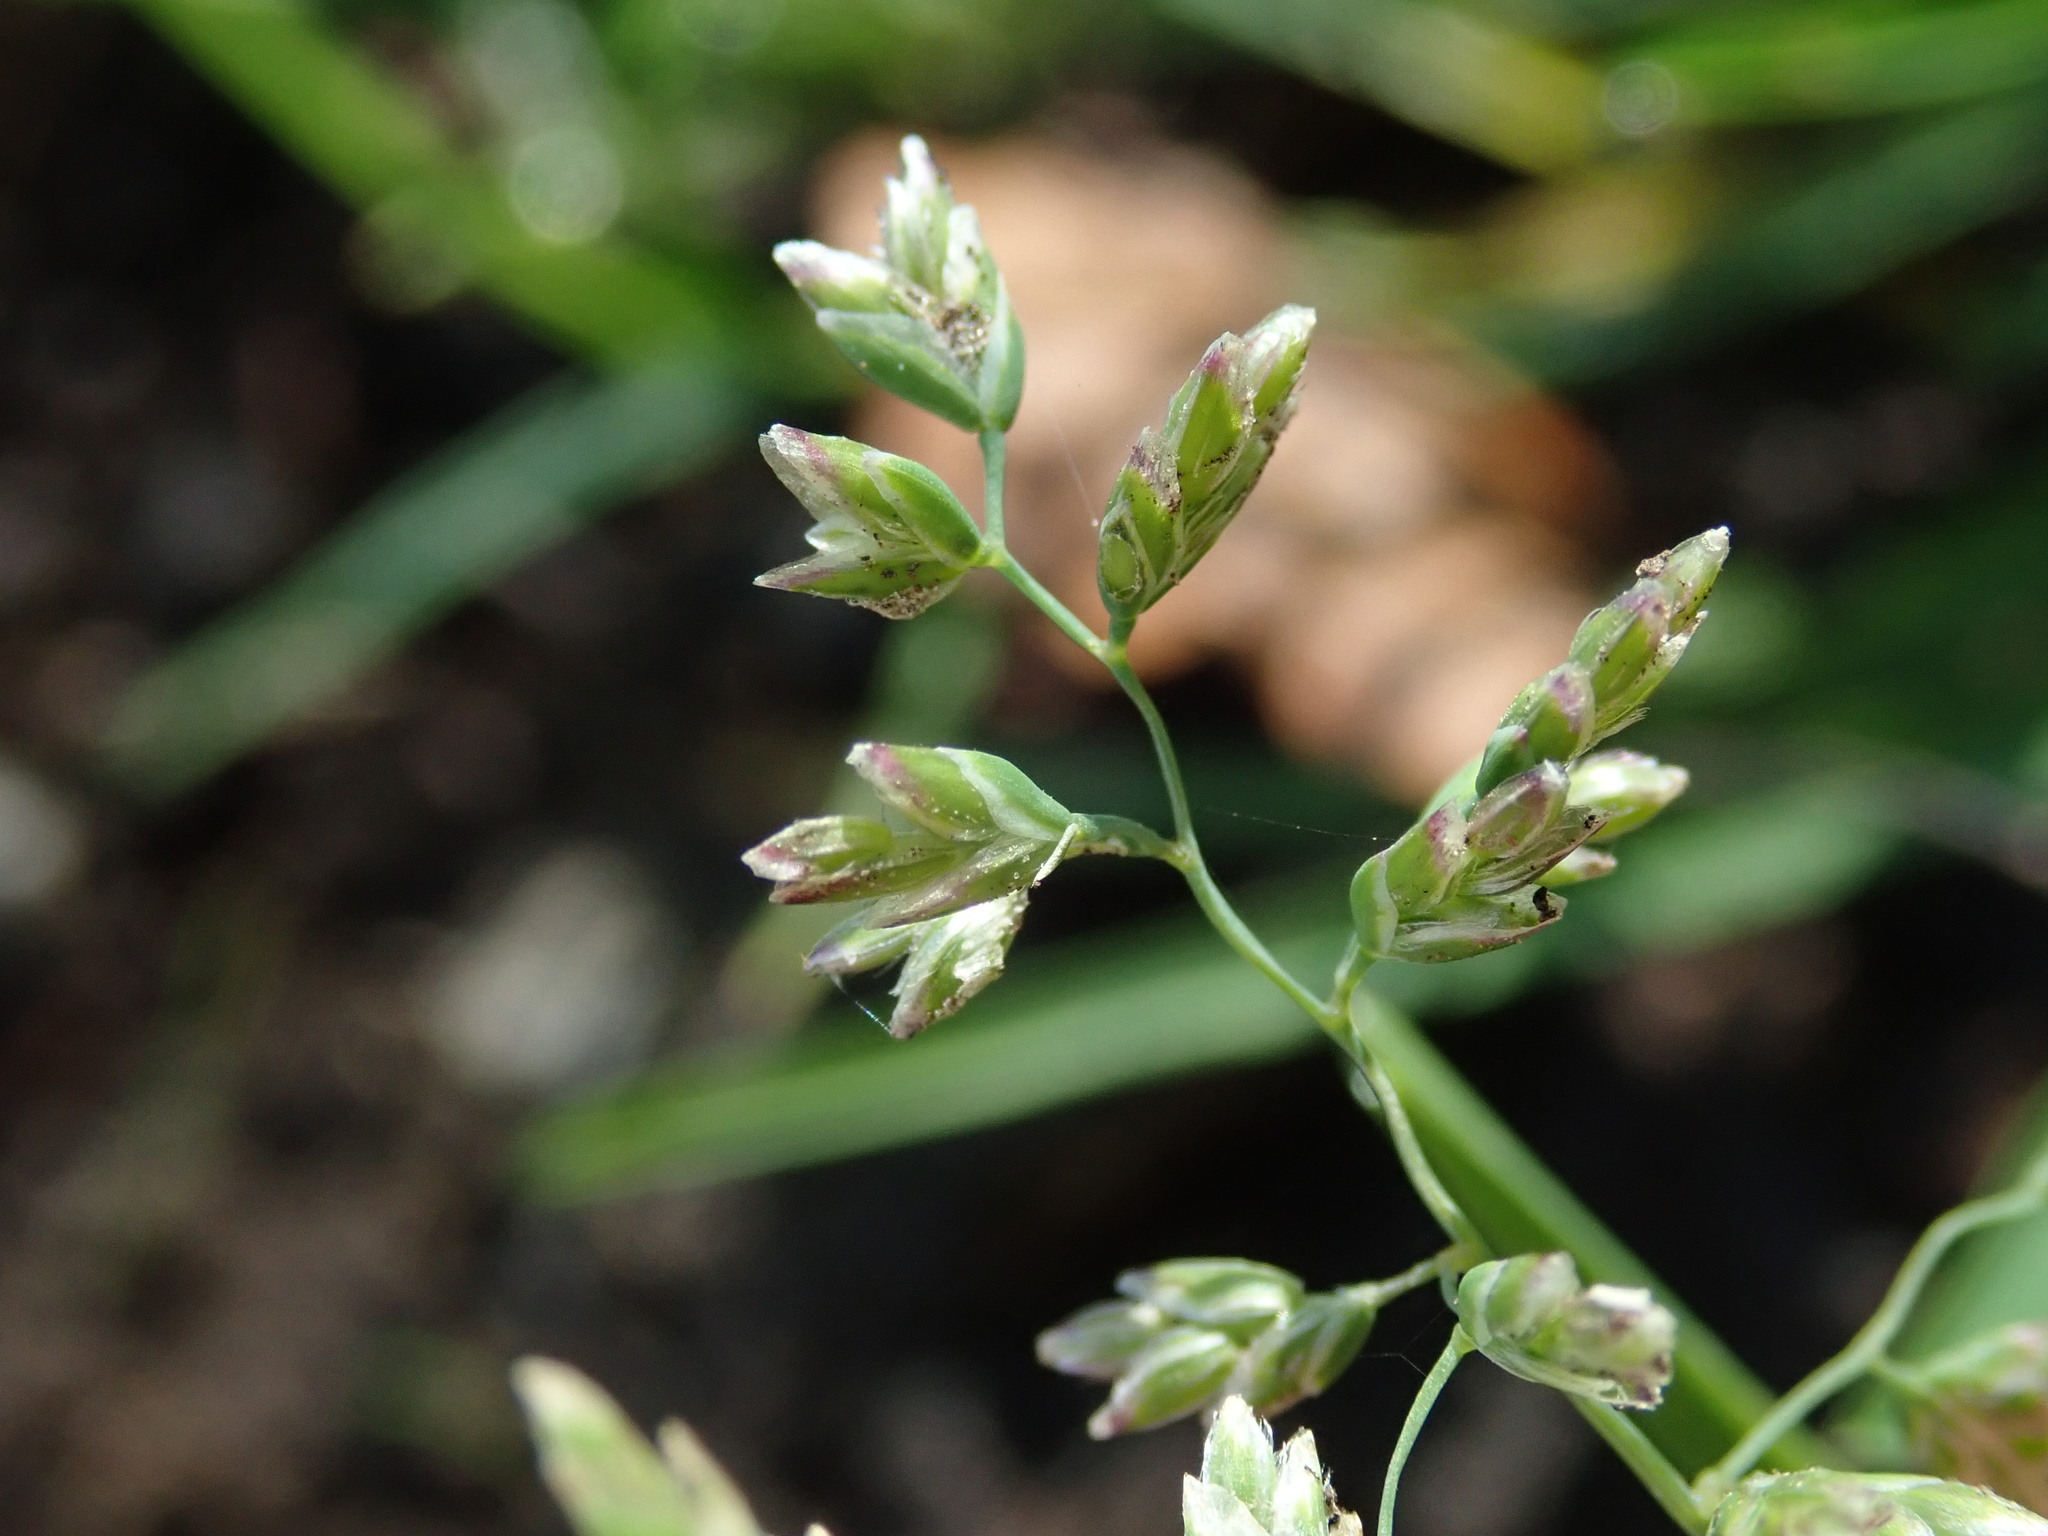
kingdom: Plantae
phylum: Tracheophyta
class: Liliopsida
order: Poales
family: Poaceae
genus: Poa
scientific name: Poa annua
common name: Annual bluegrass
